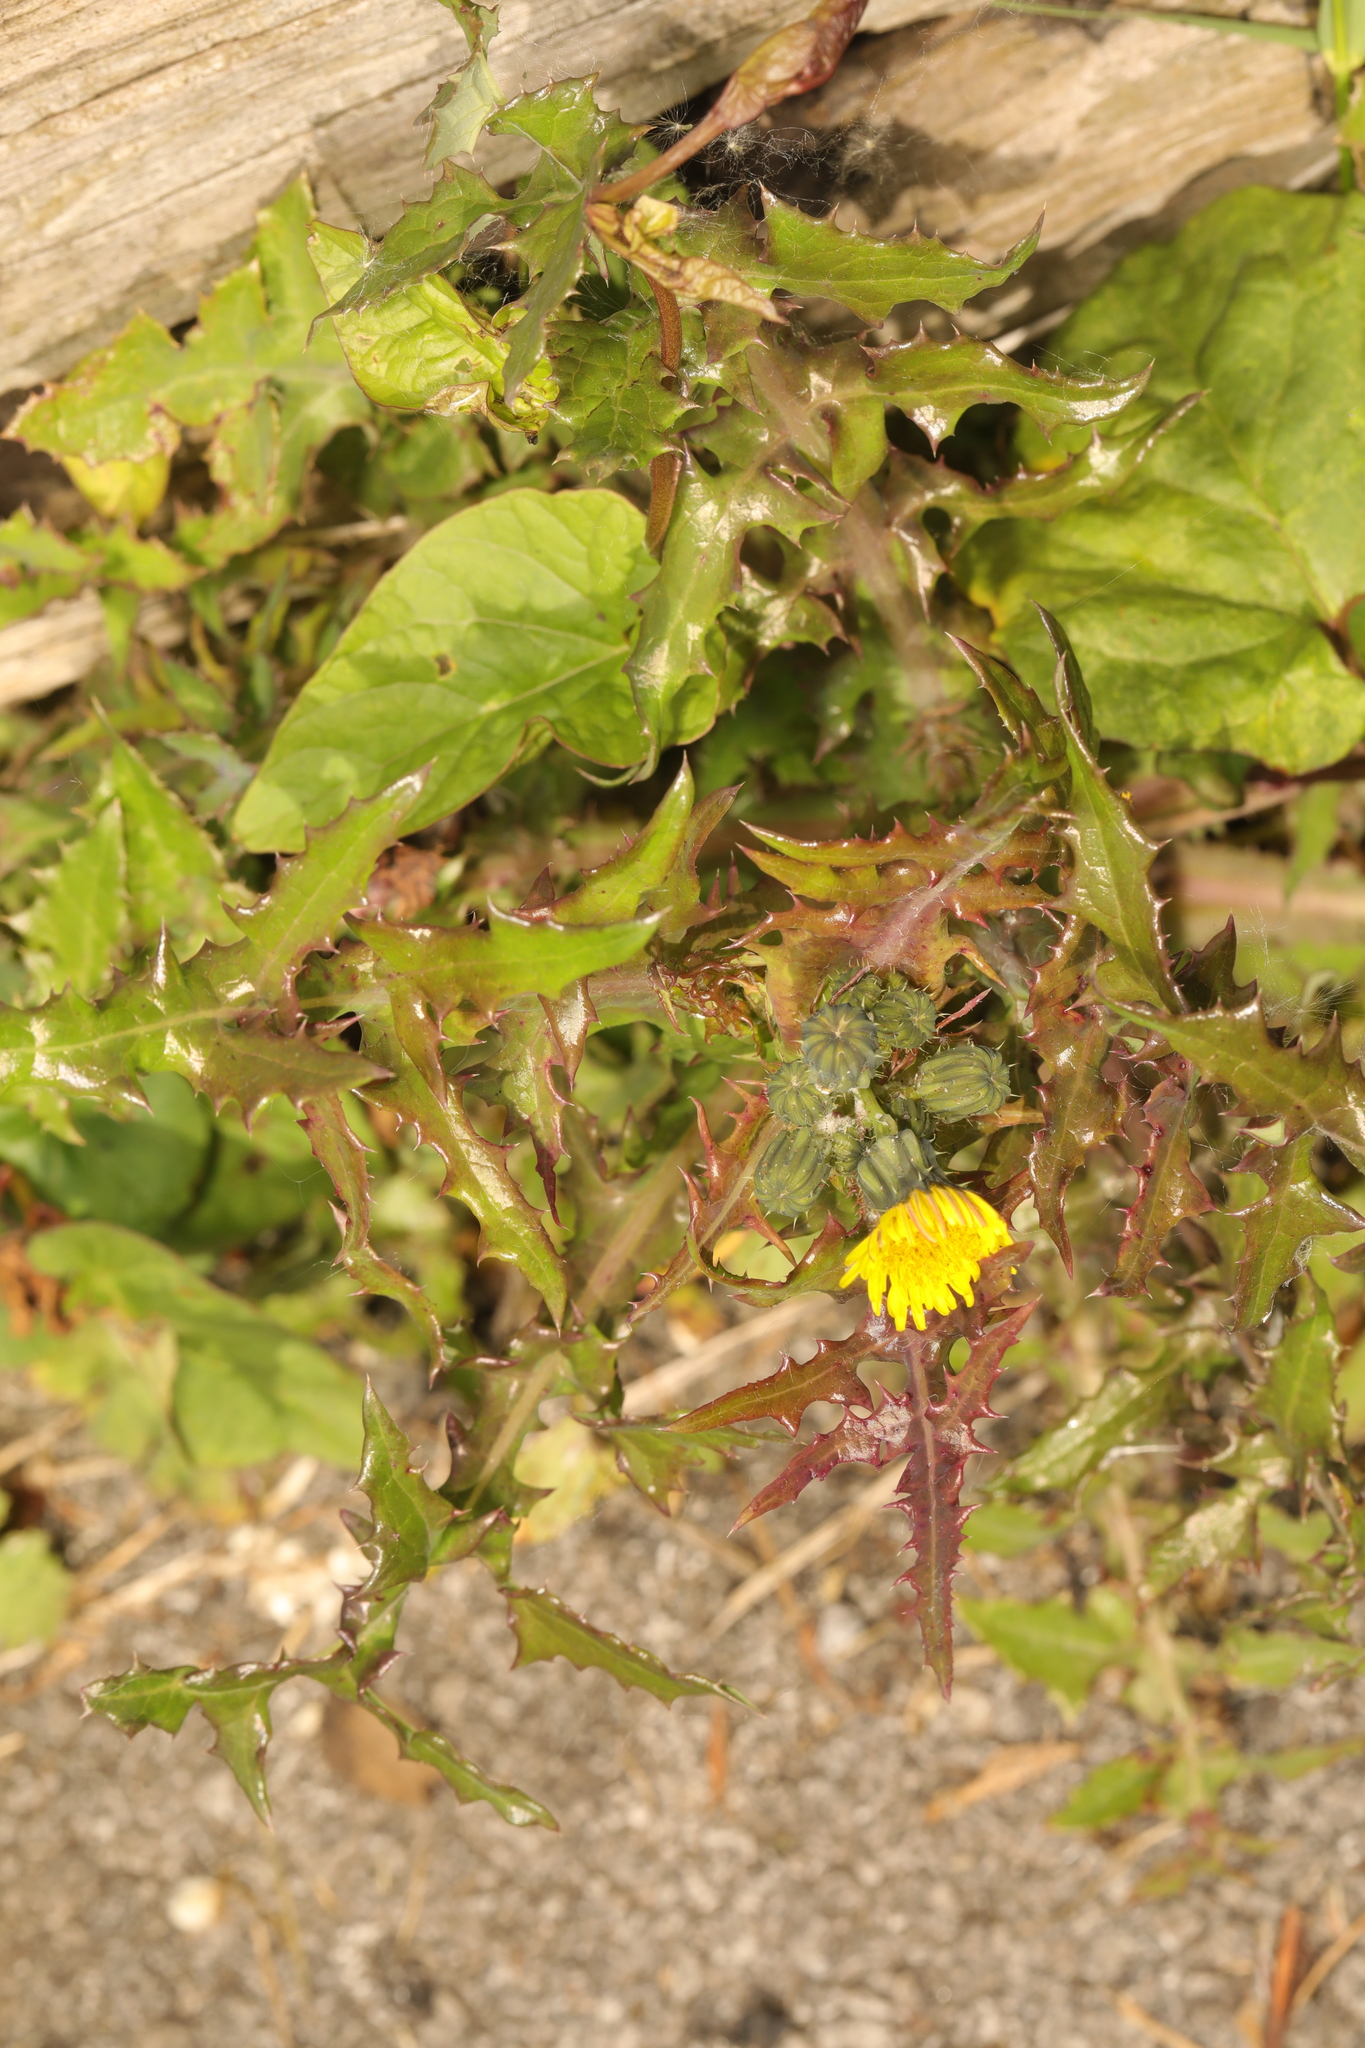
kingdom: Plantae
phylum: Tracheophyta
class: Magnoliopsida
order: Asterales
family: Asteraceae
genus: Sonchus
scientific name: Sonchus oleraceus
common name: Common sowthistle
